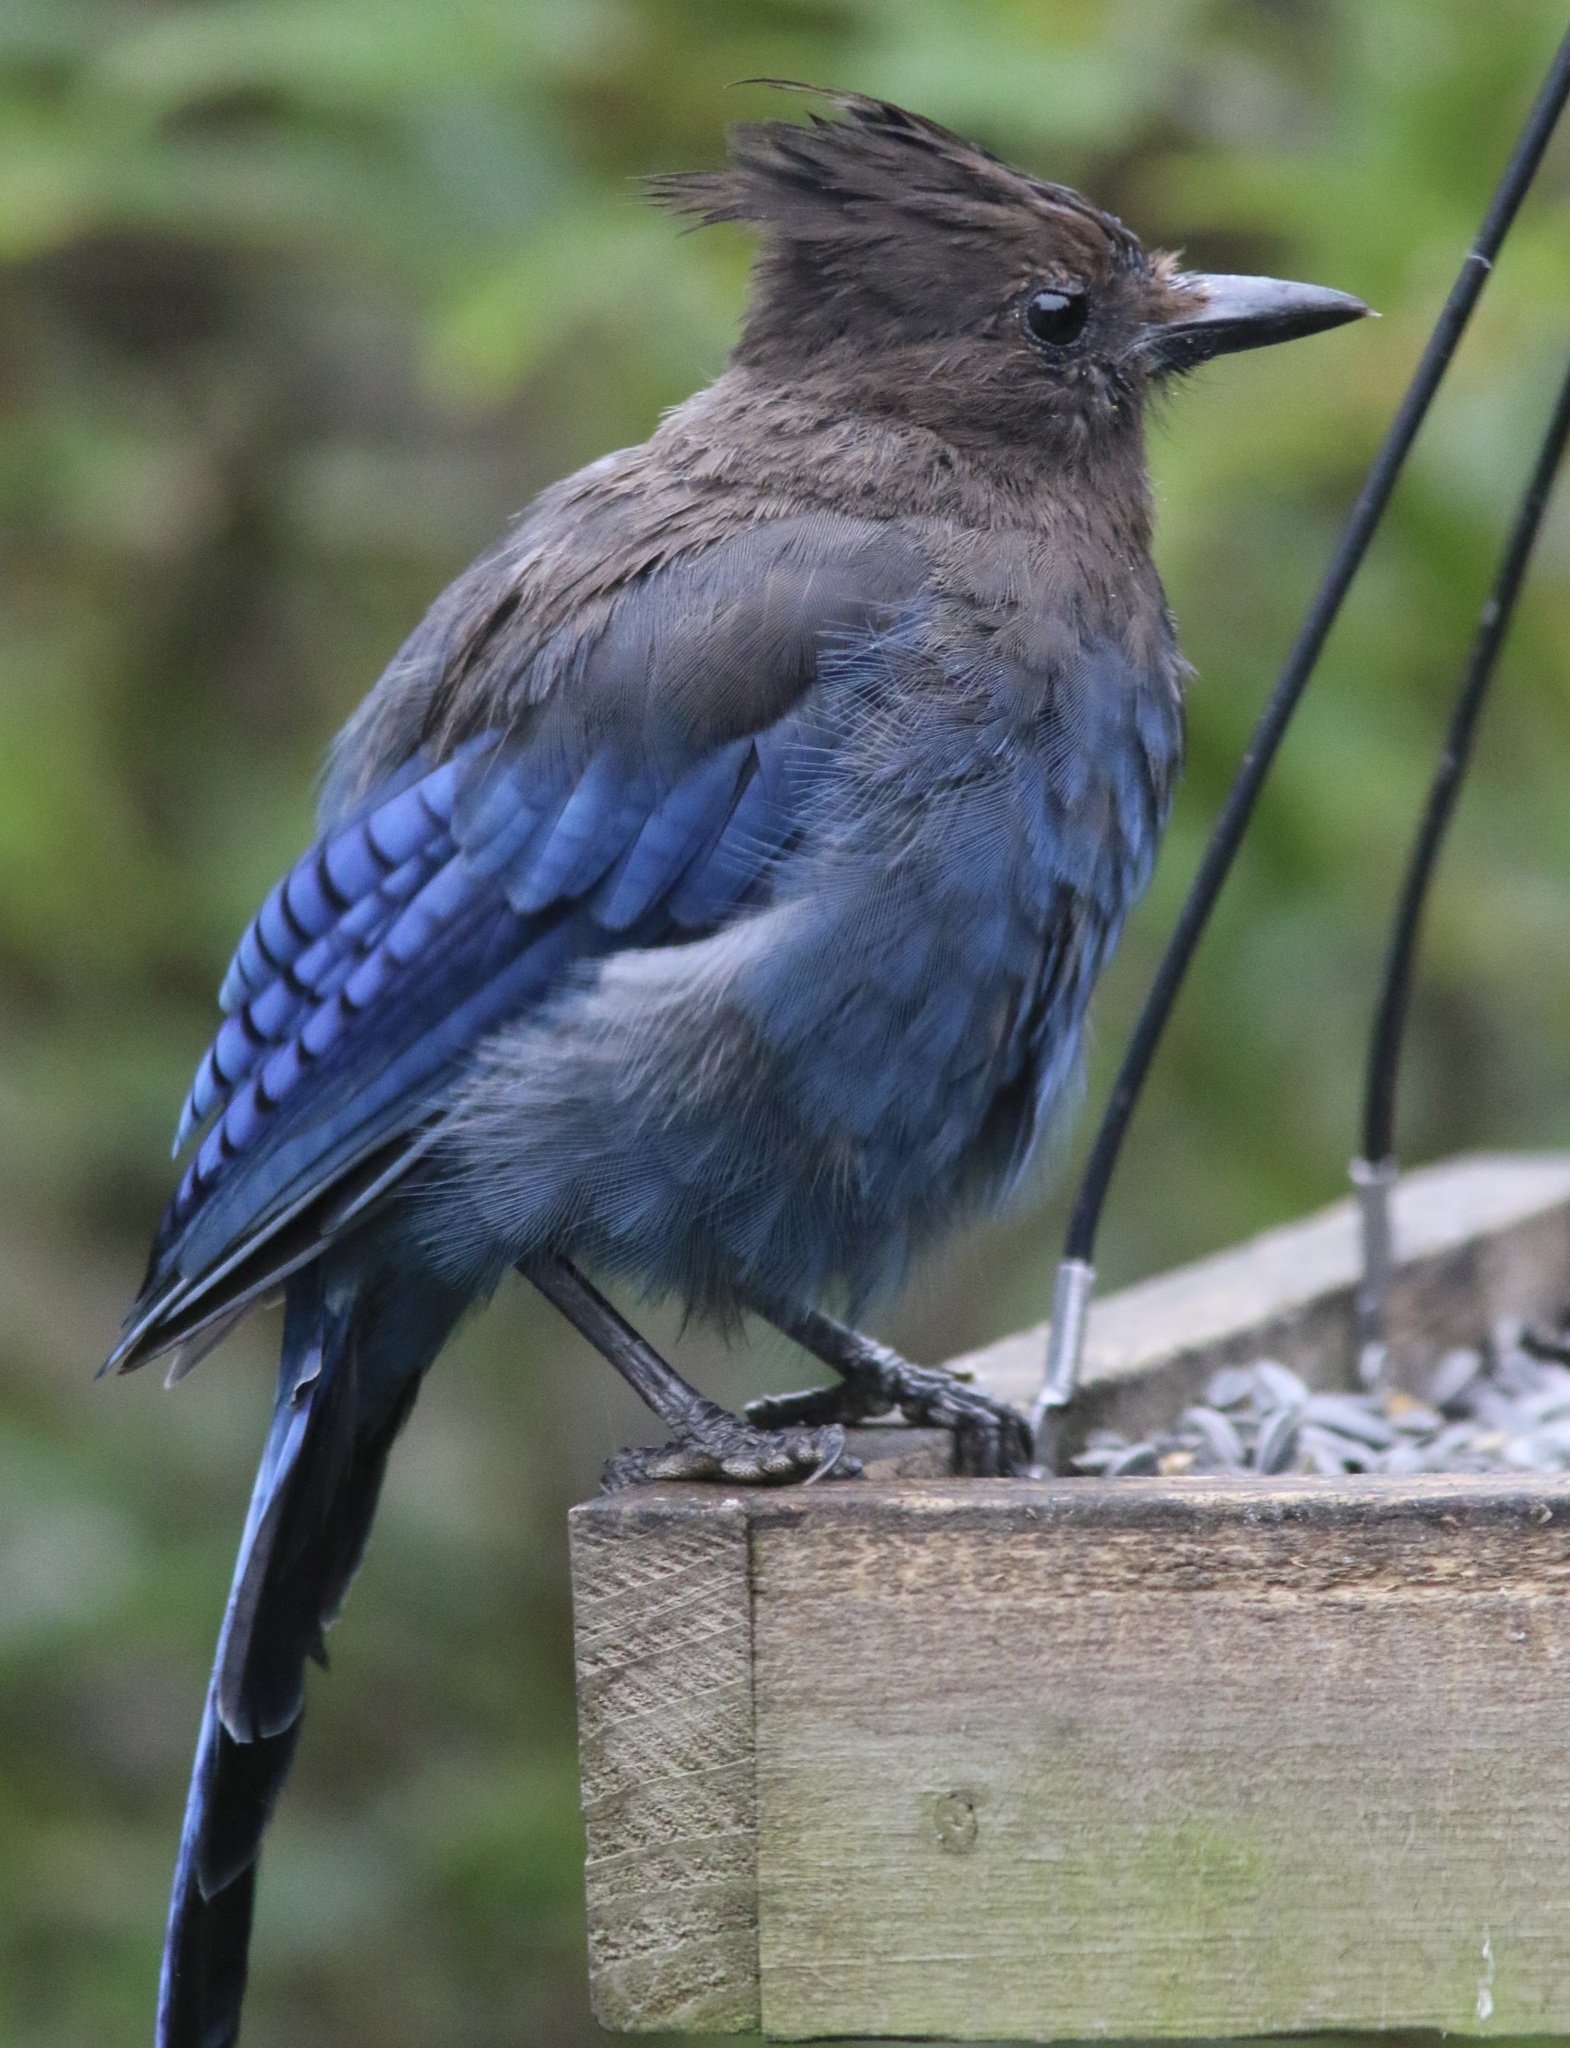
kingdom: Animalia
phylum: Chordata
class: Aves
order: Passeriformes
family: Corvidae
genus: Cyanocitta
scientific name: Cyanocitta stelleri
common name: Steller's jay
